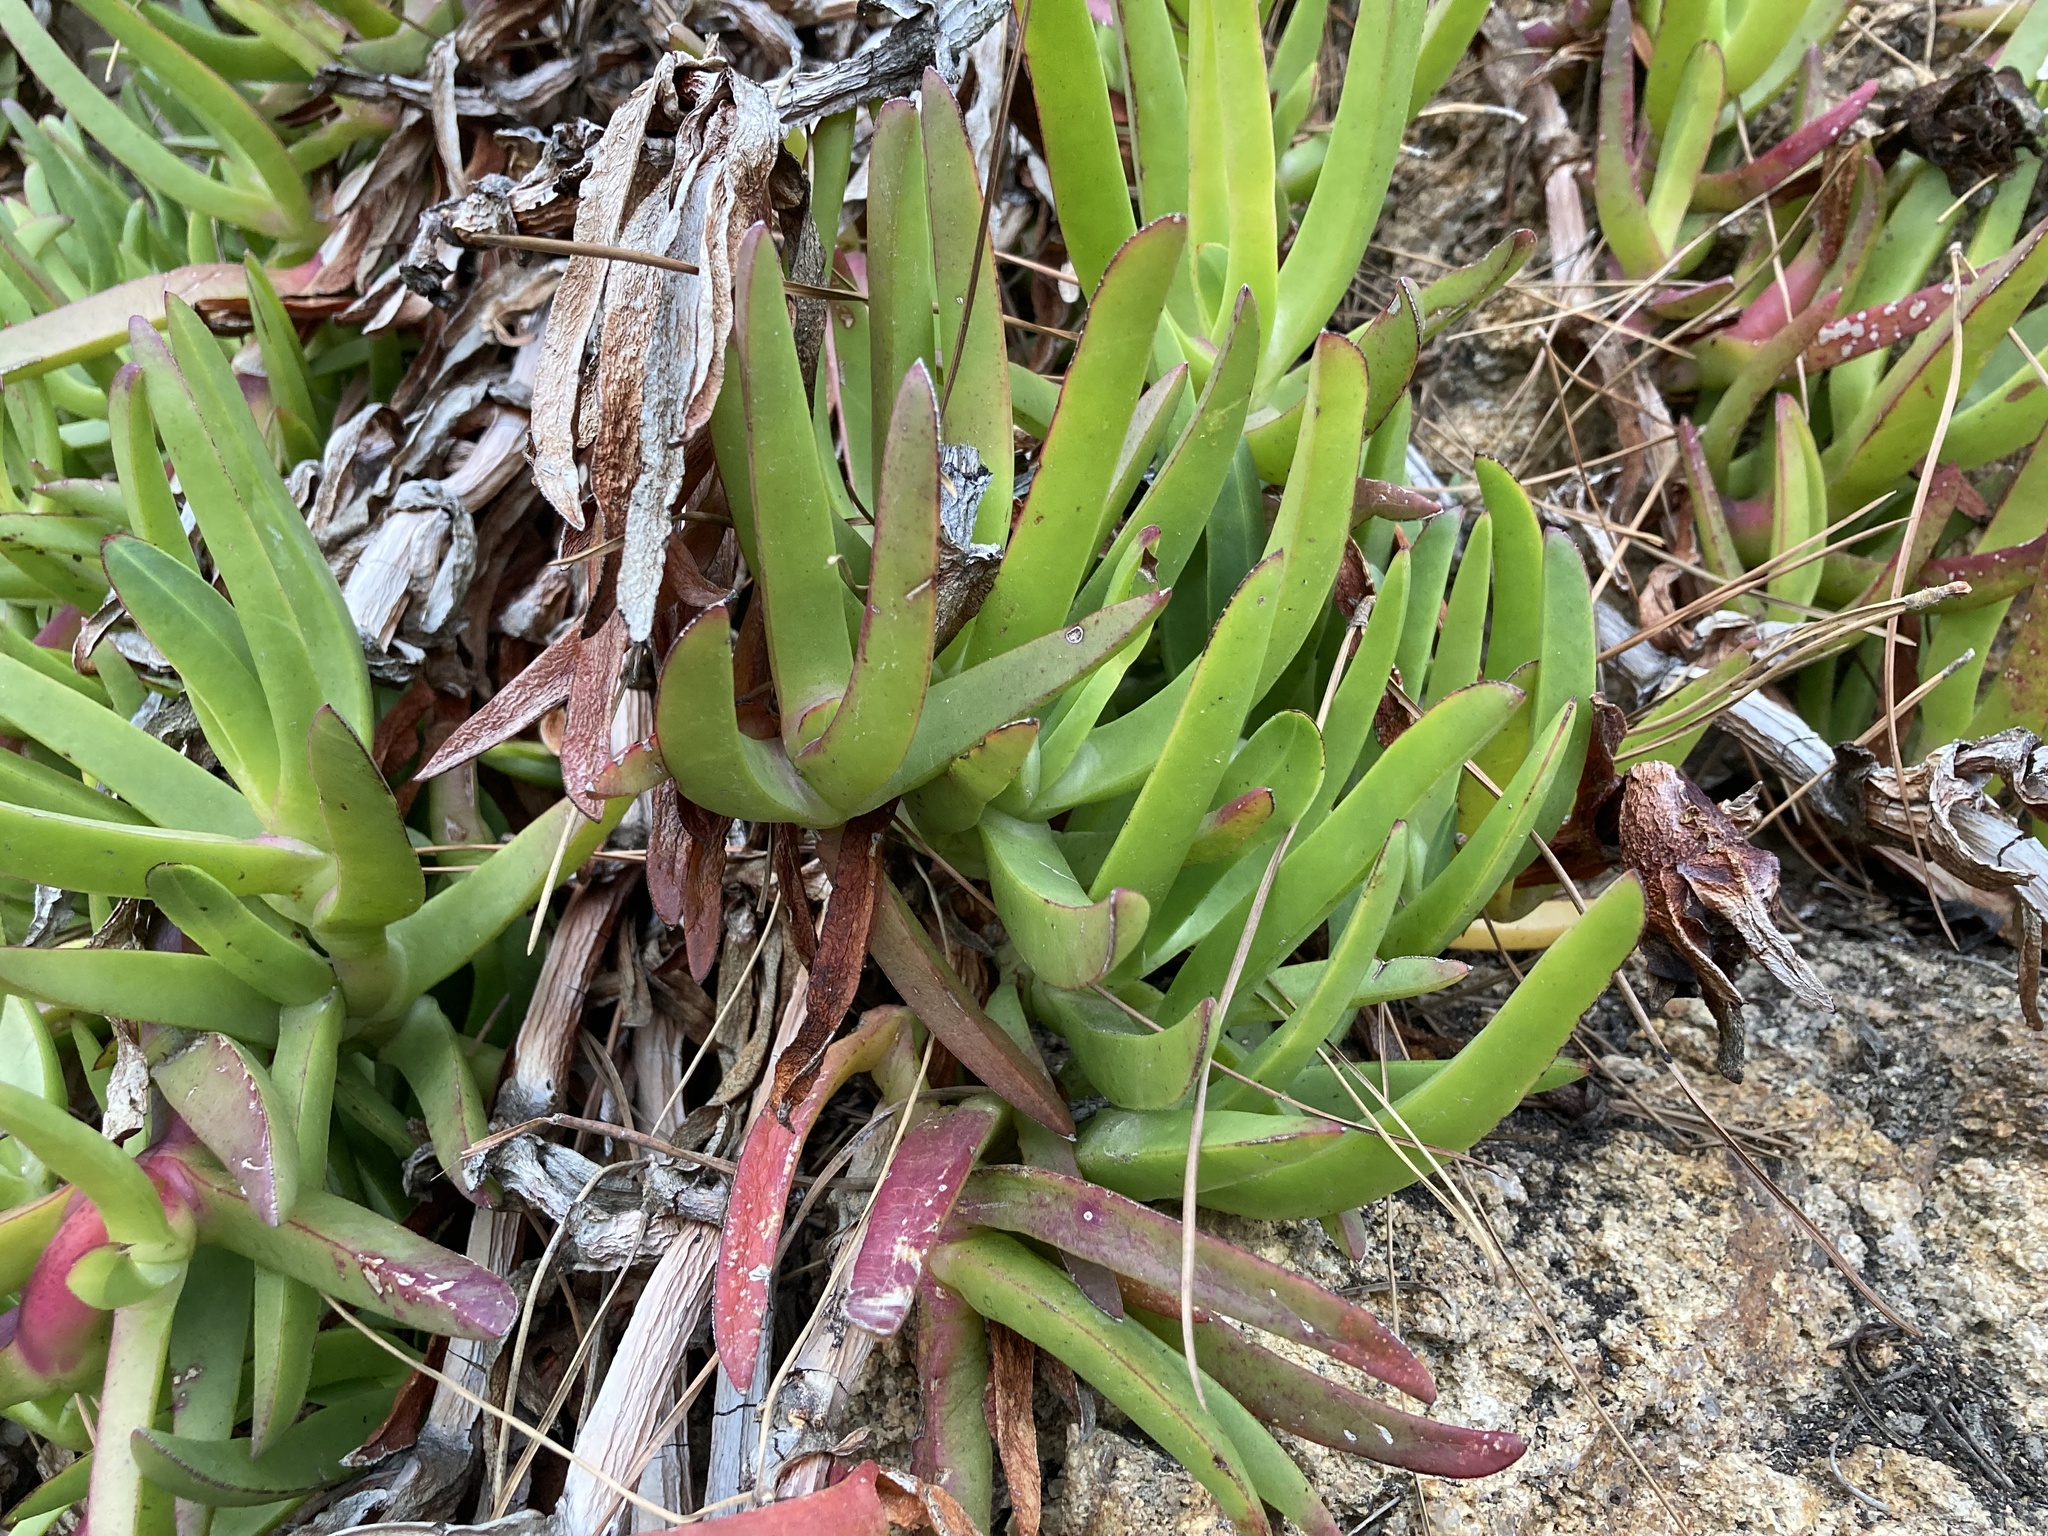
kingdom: Plantae
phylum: Tracheophyta
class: Magnoliopsida
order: Caryophyllales
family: Aizoaceae
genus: Carpobrotus
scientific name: Carpobrotus edulis
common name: Hottentot-fig
